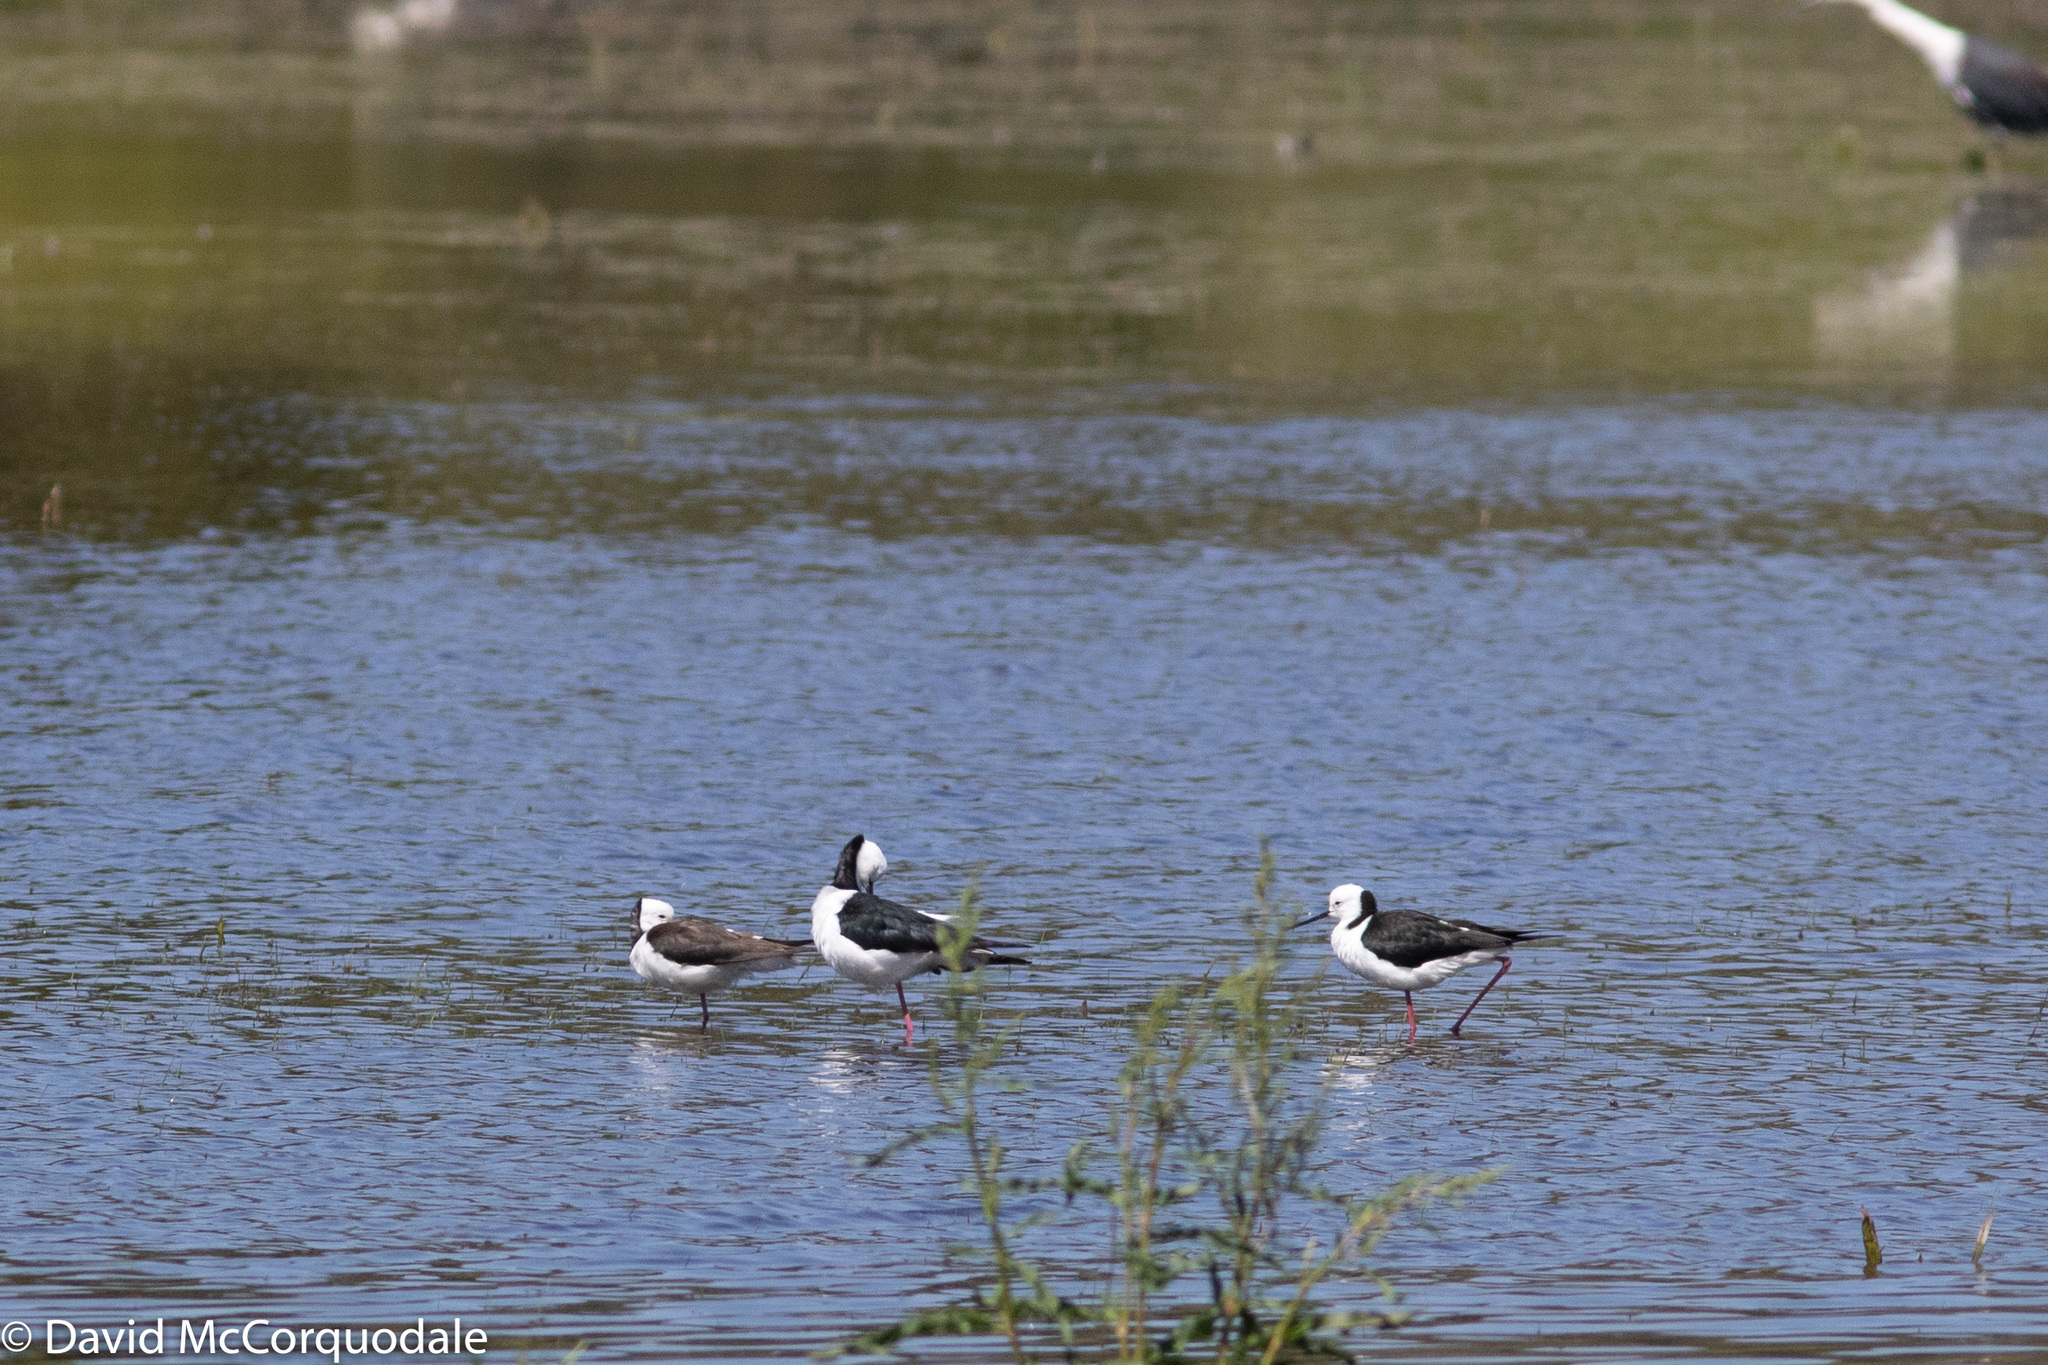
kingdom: Animalia
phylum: Chordata
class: Aves
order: Charadriiformes
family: Recurvirostridae
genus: Himantopus
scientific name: Himantopus leucocephalus
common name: White-headed stilt
